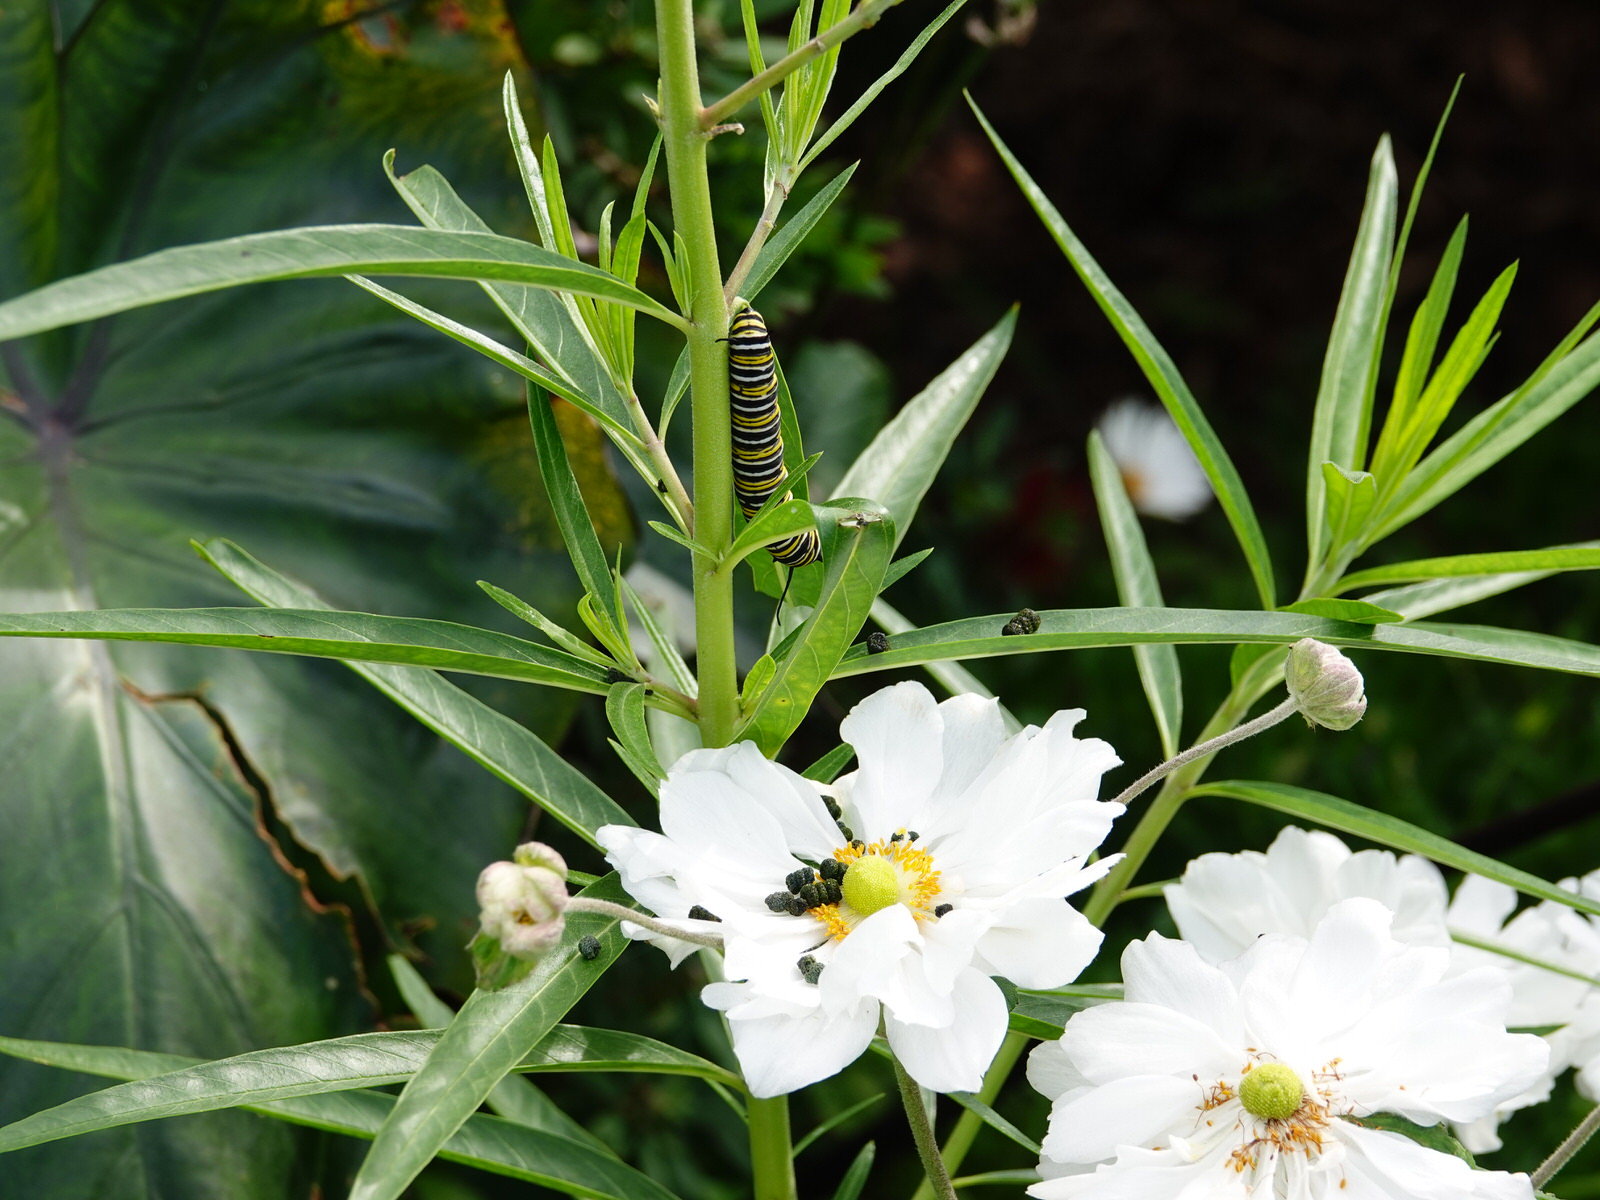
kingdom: Animalia
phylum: Arthropoda
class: Insecta
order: Lepidoptera
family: Nymphalidae
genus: Danaus
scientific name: Danaus plexippus
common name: Monarch
